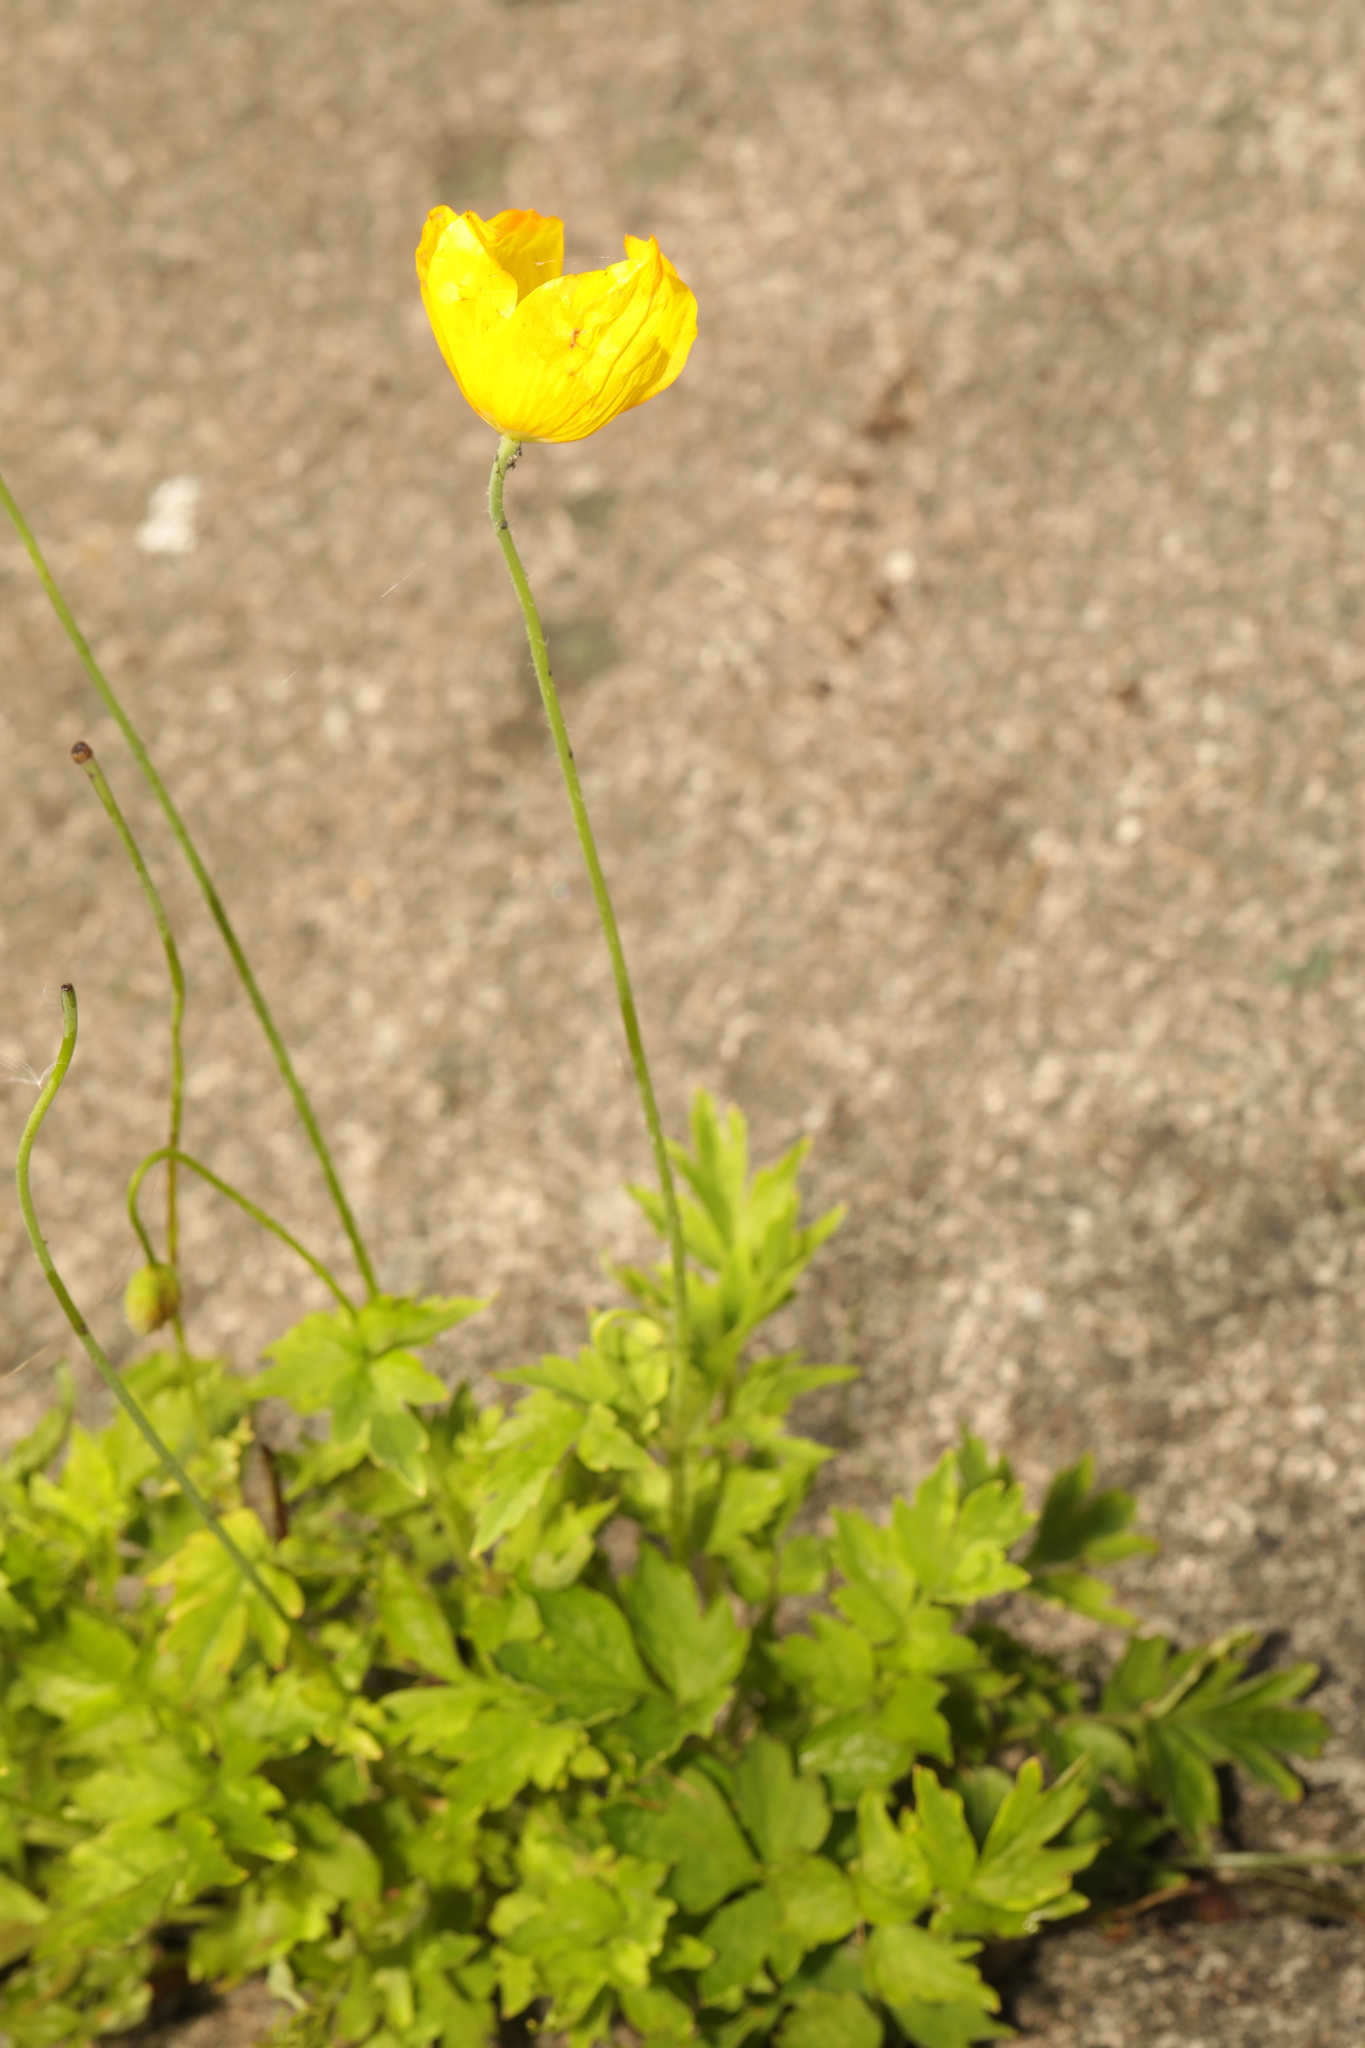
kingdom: Plantae
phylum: Tracheophyta
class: Magnoliopsida
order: Ranunculales
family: Papaveraceae
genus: Papaver
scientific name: Papaver cambricum
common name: Poppy
